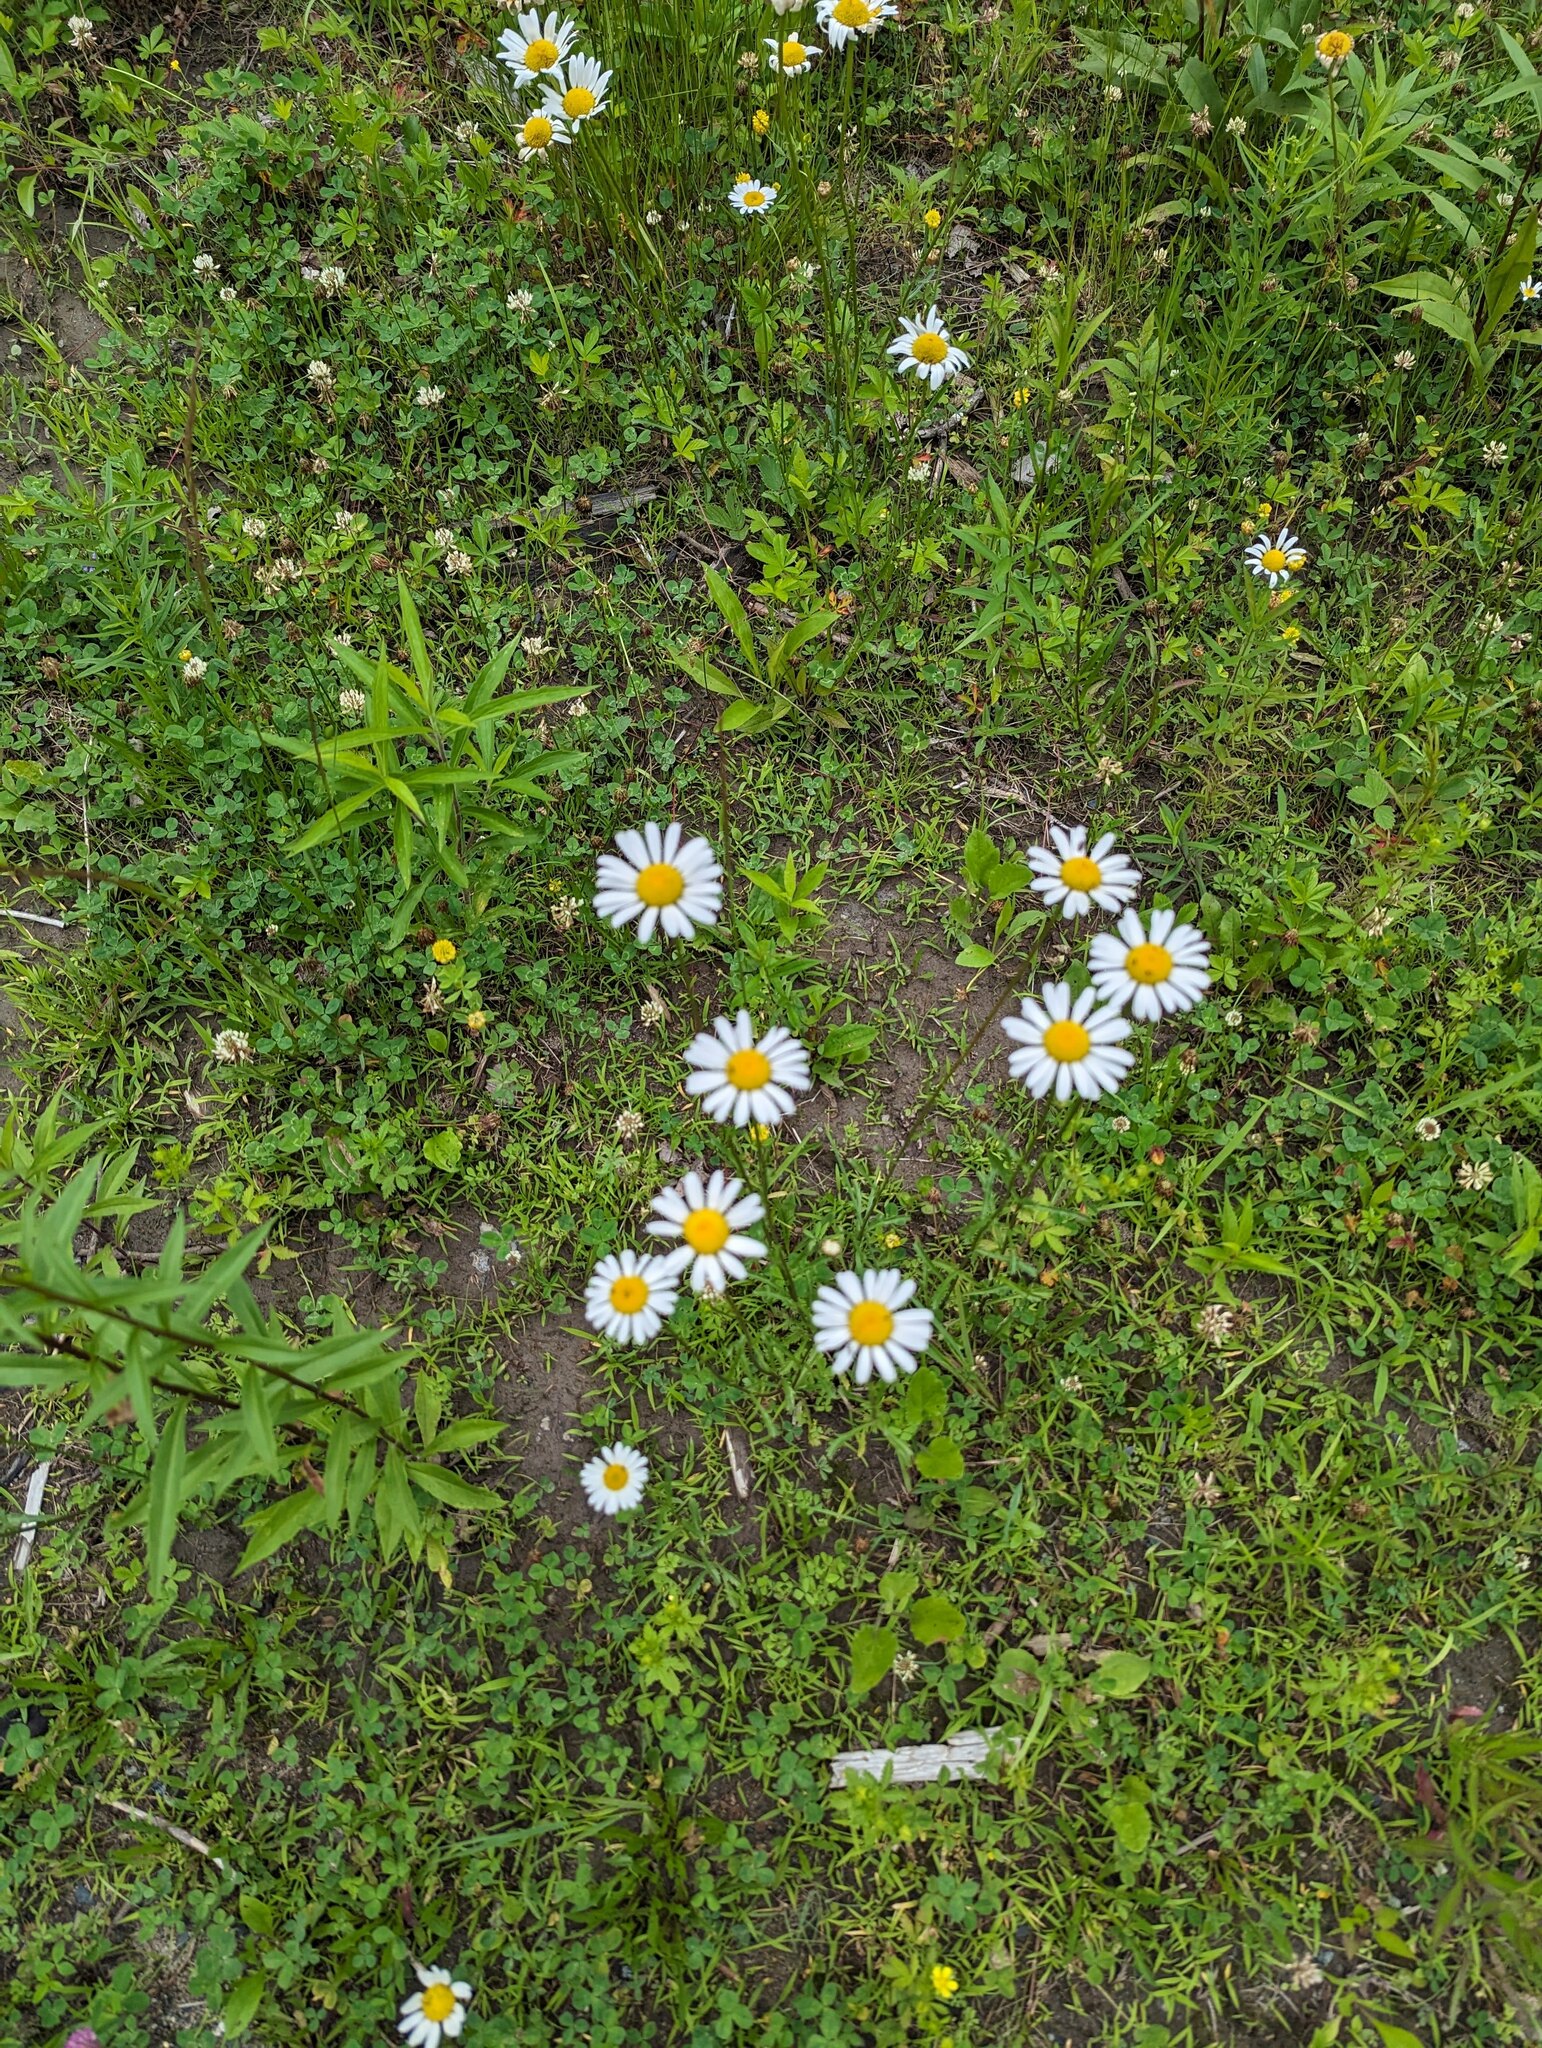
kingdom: Plantae
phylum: Tracheophyta
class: Magnoliopsida
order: Asterales
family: Asteraceae
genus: Leucanthemum
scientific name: Leucanthemum vulgare
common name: Oxeye daisy
